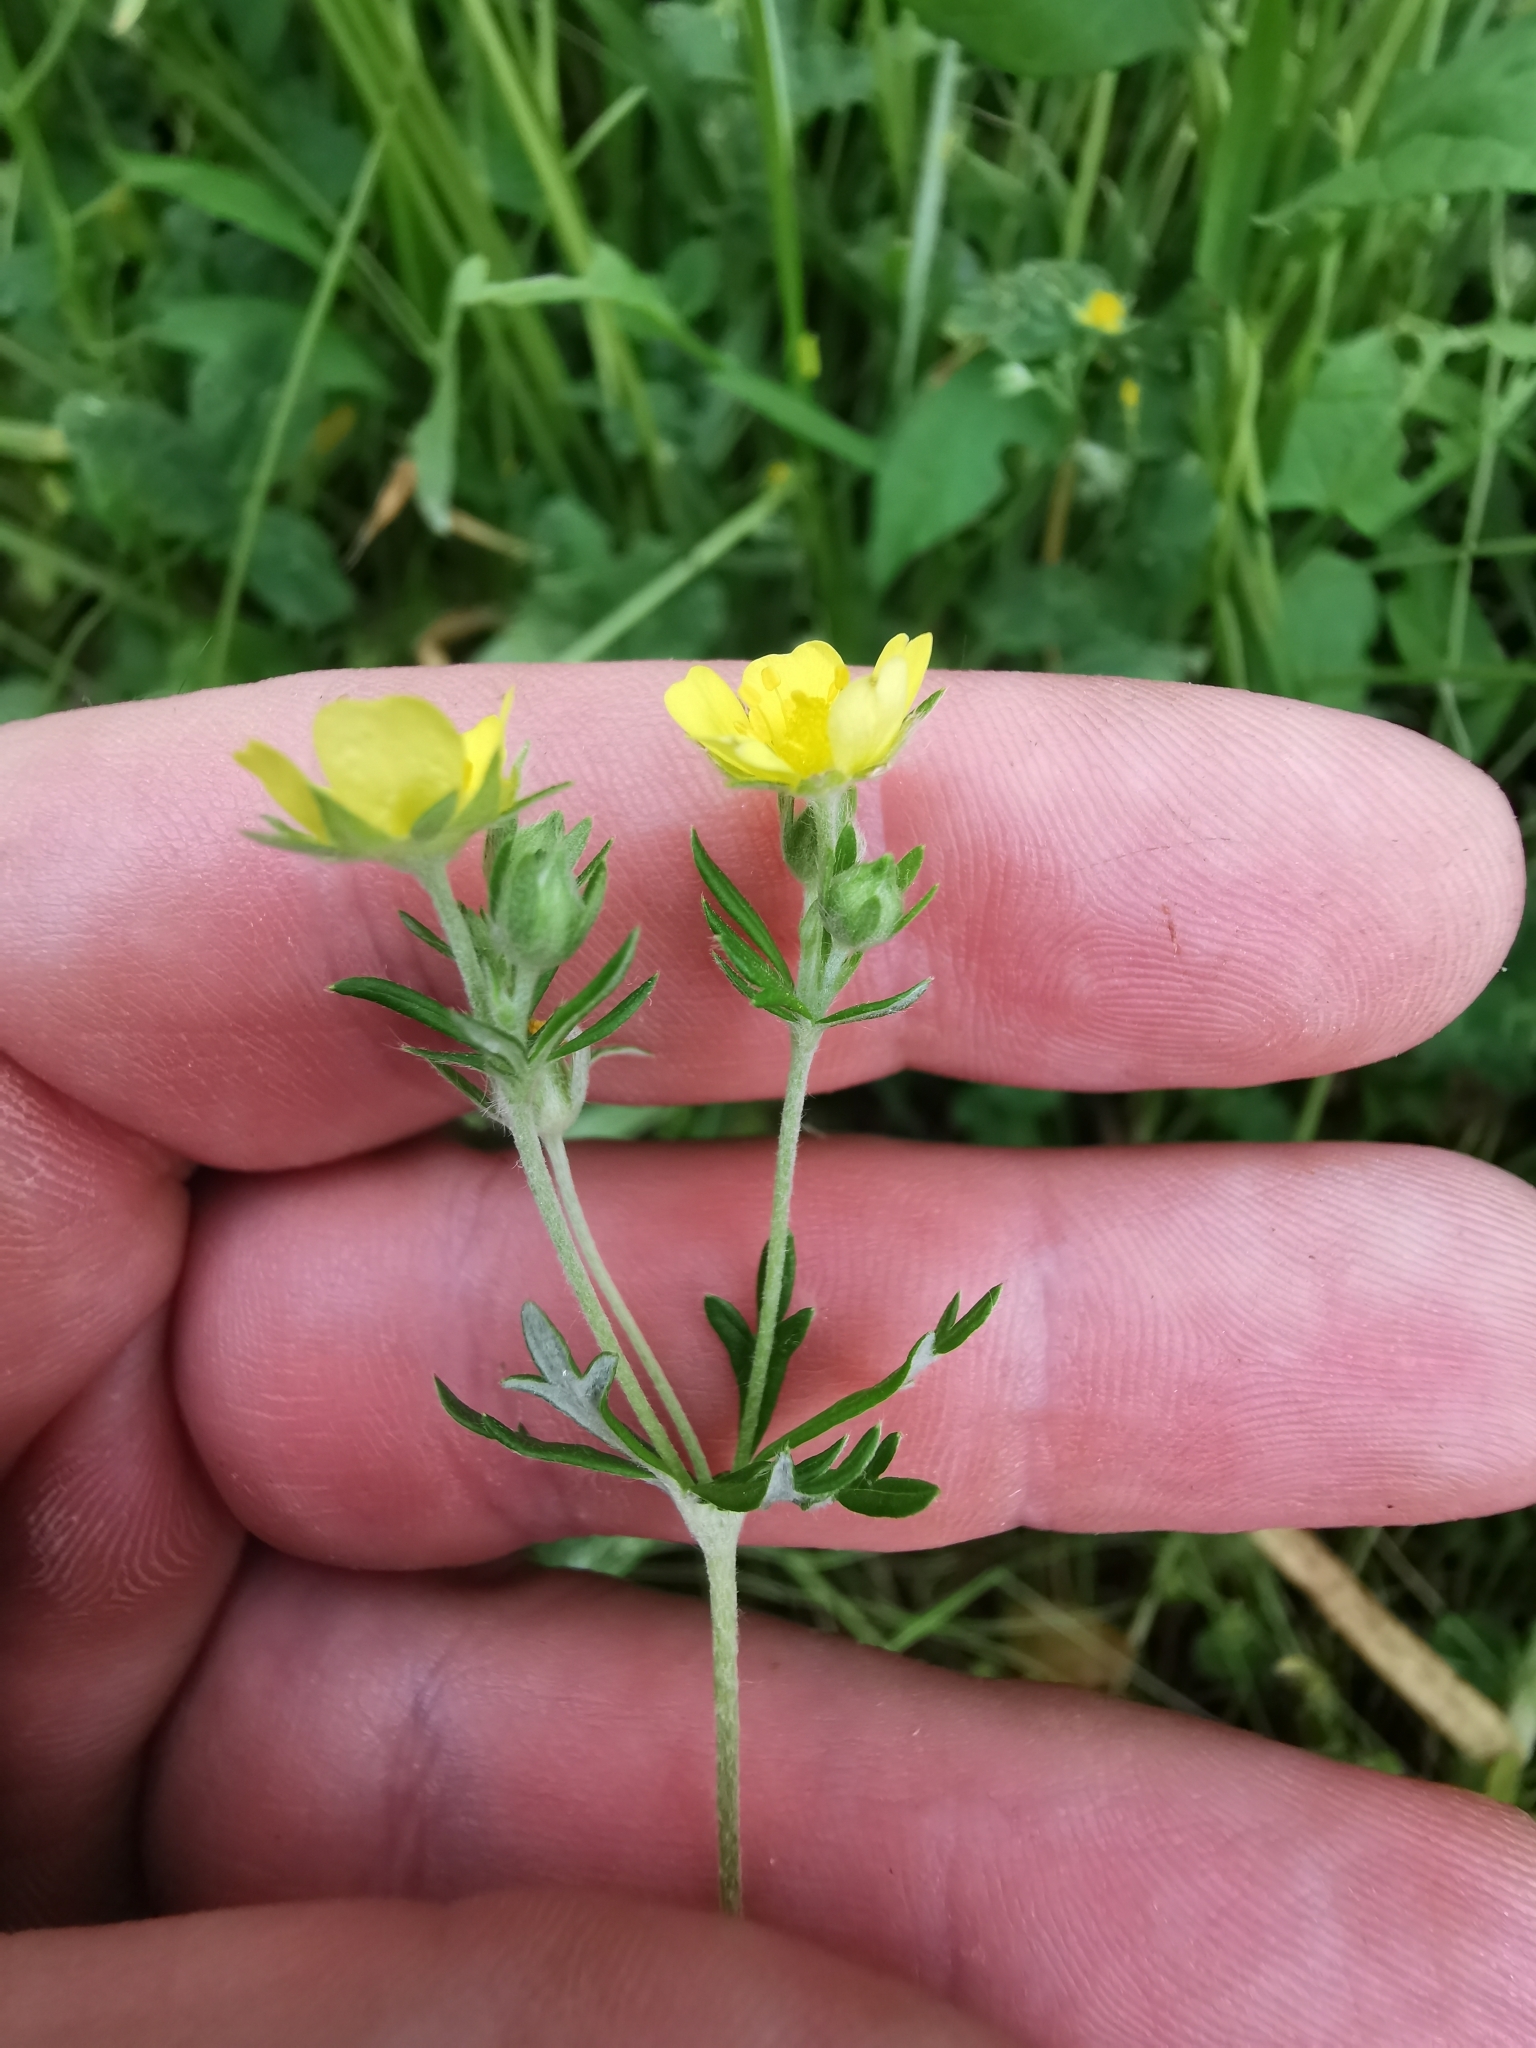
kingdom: Plantae
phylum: Tracheophyta
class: Magnoliopsida
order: Rosales
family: Rosaceae
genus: Potentilla
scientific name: Potentilla argentea
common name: Hoary cinquefoil
